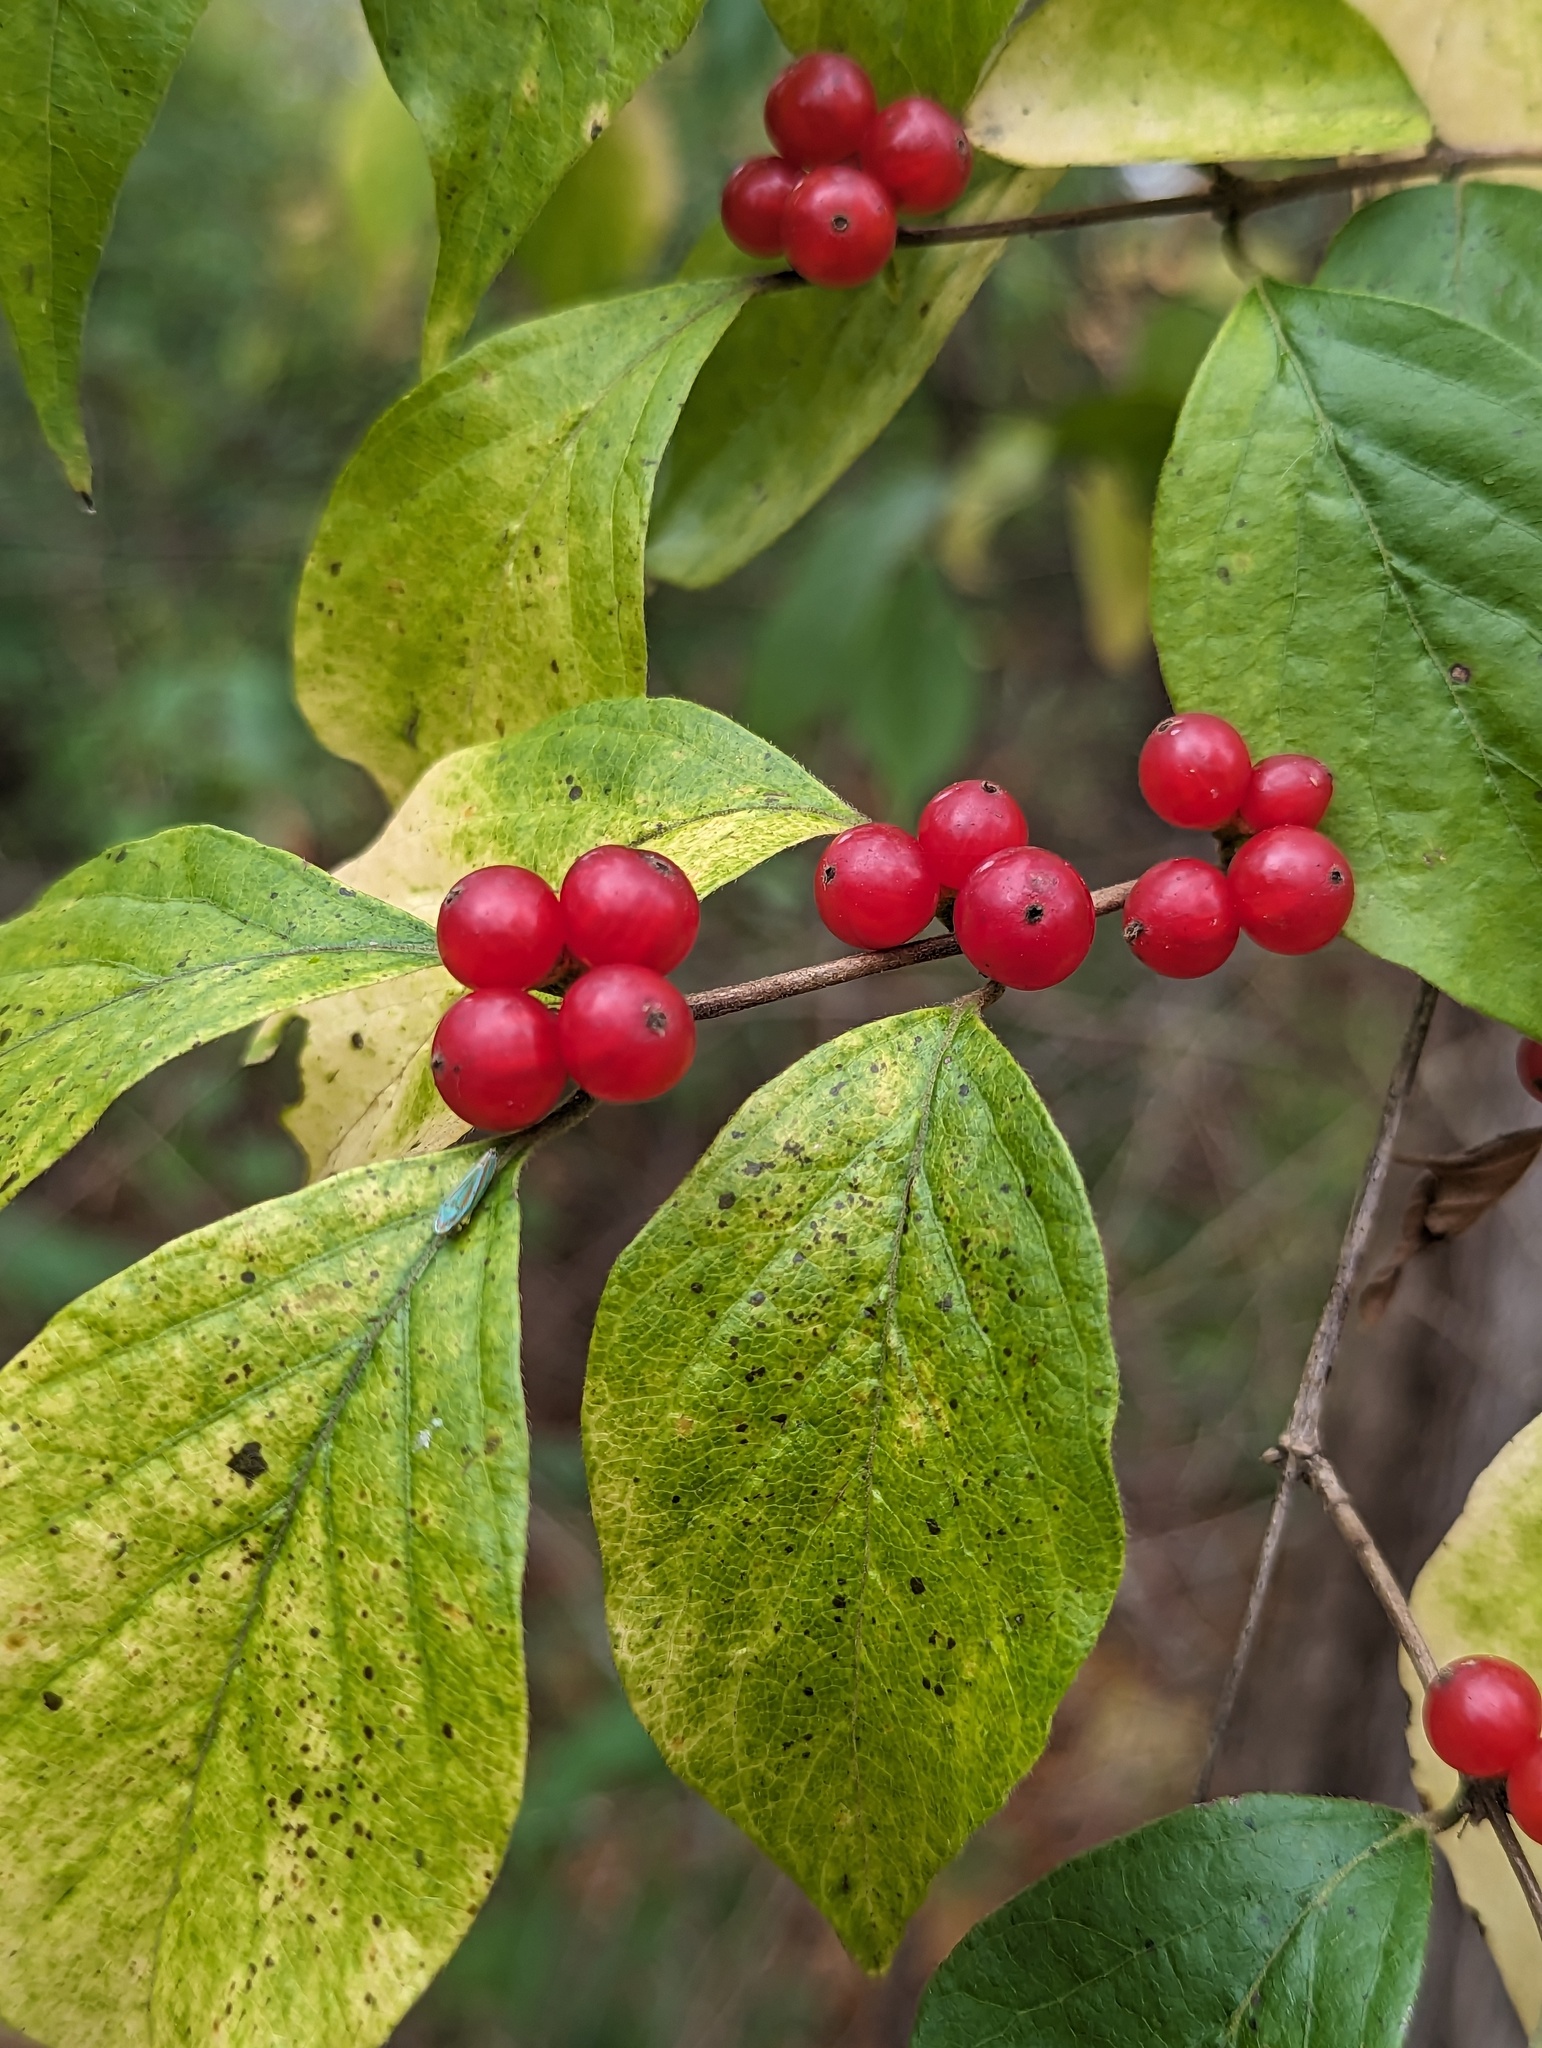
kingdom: Plantae
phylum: Tracheophyta
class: Magnoliopsida
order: Dipsacales
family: Caprifoliaceae
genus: Lonicera
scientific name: Lonicera maackii
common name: Amur honeysuckle
